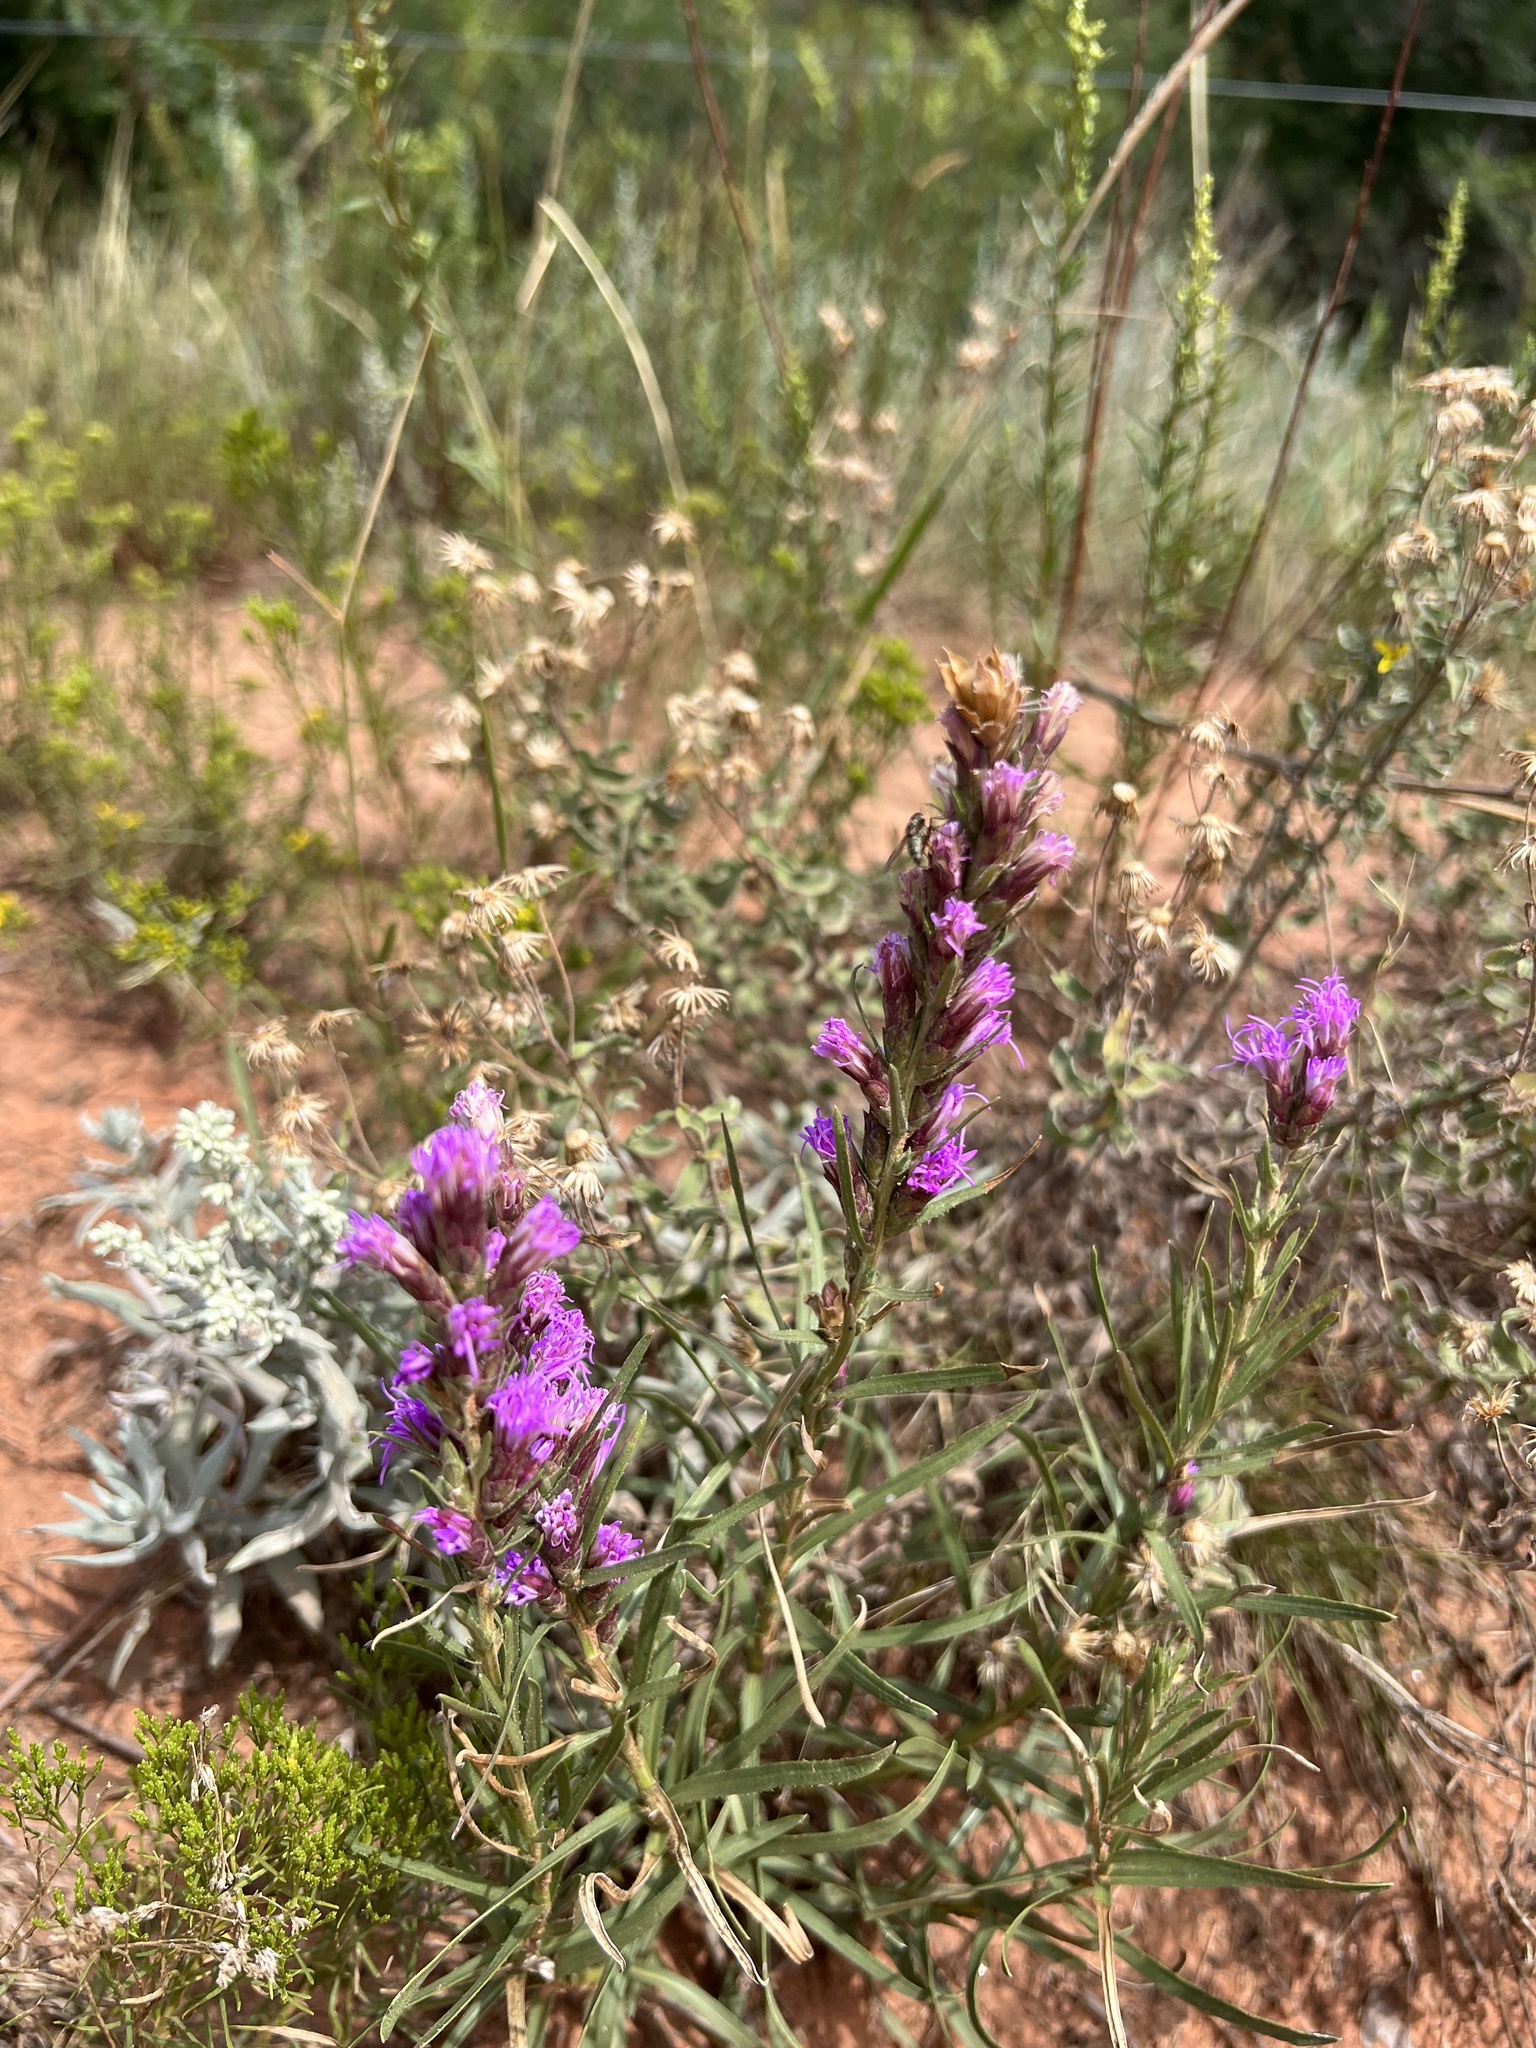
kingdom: Plantae
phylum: Tracheophyta
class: Magnoliopsida
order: Asterales
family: Asteraceae
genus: Liatris
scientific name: Liatris punctata
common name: Dotted gayfeather
